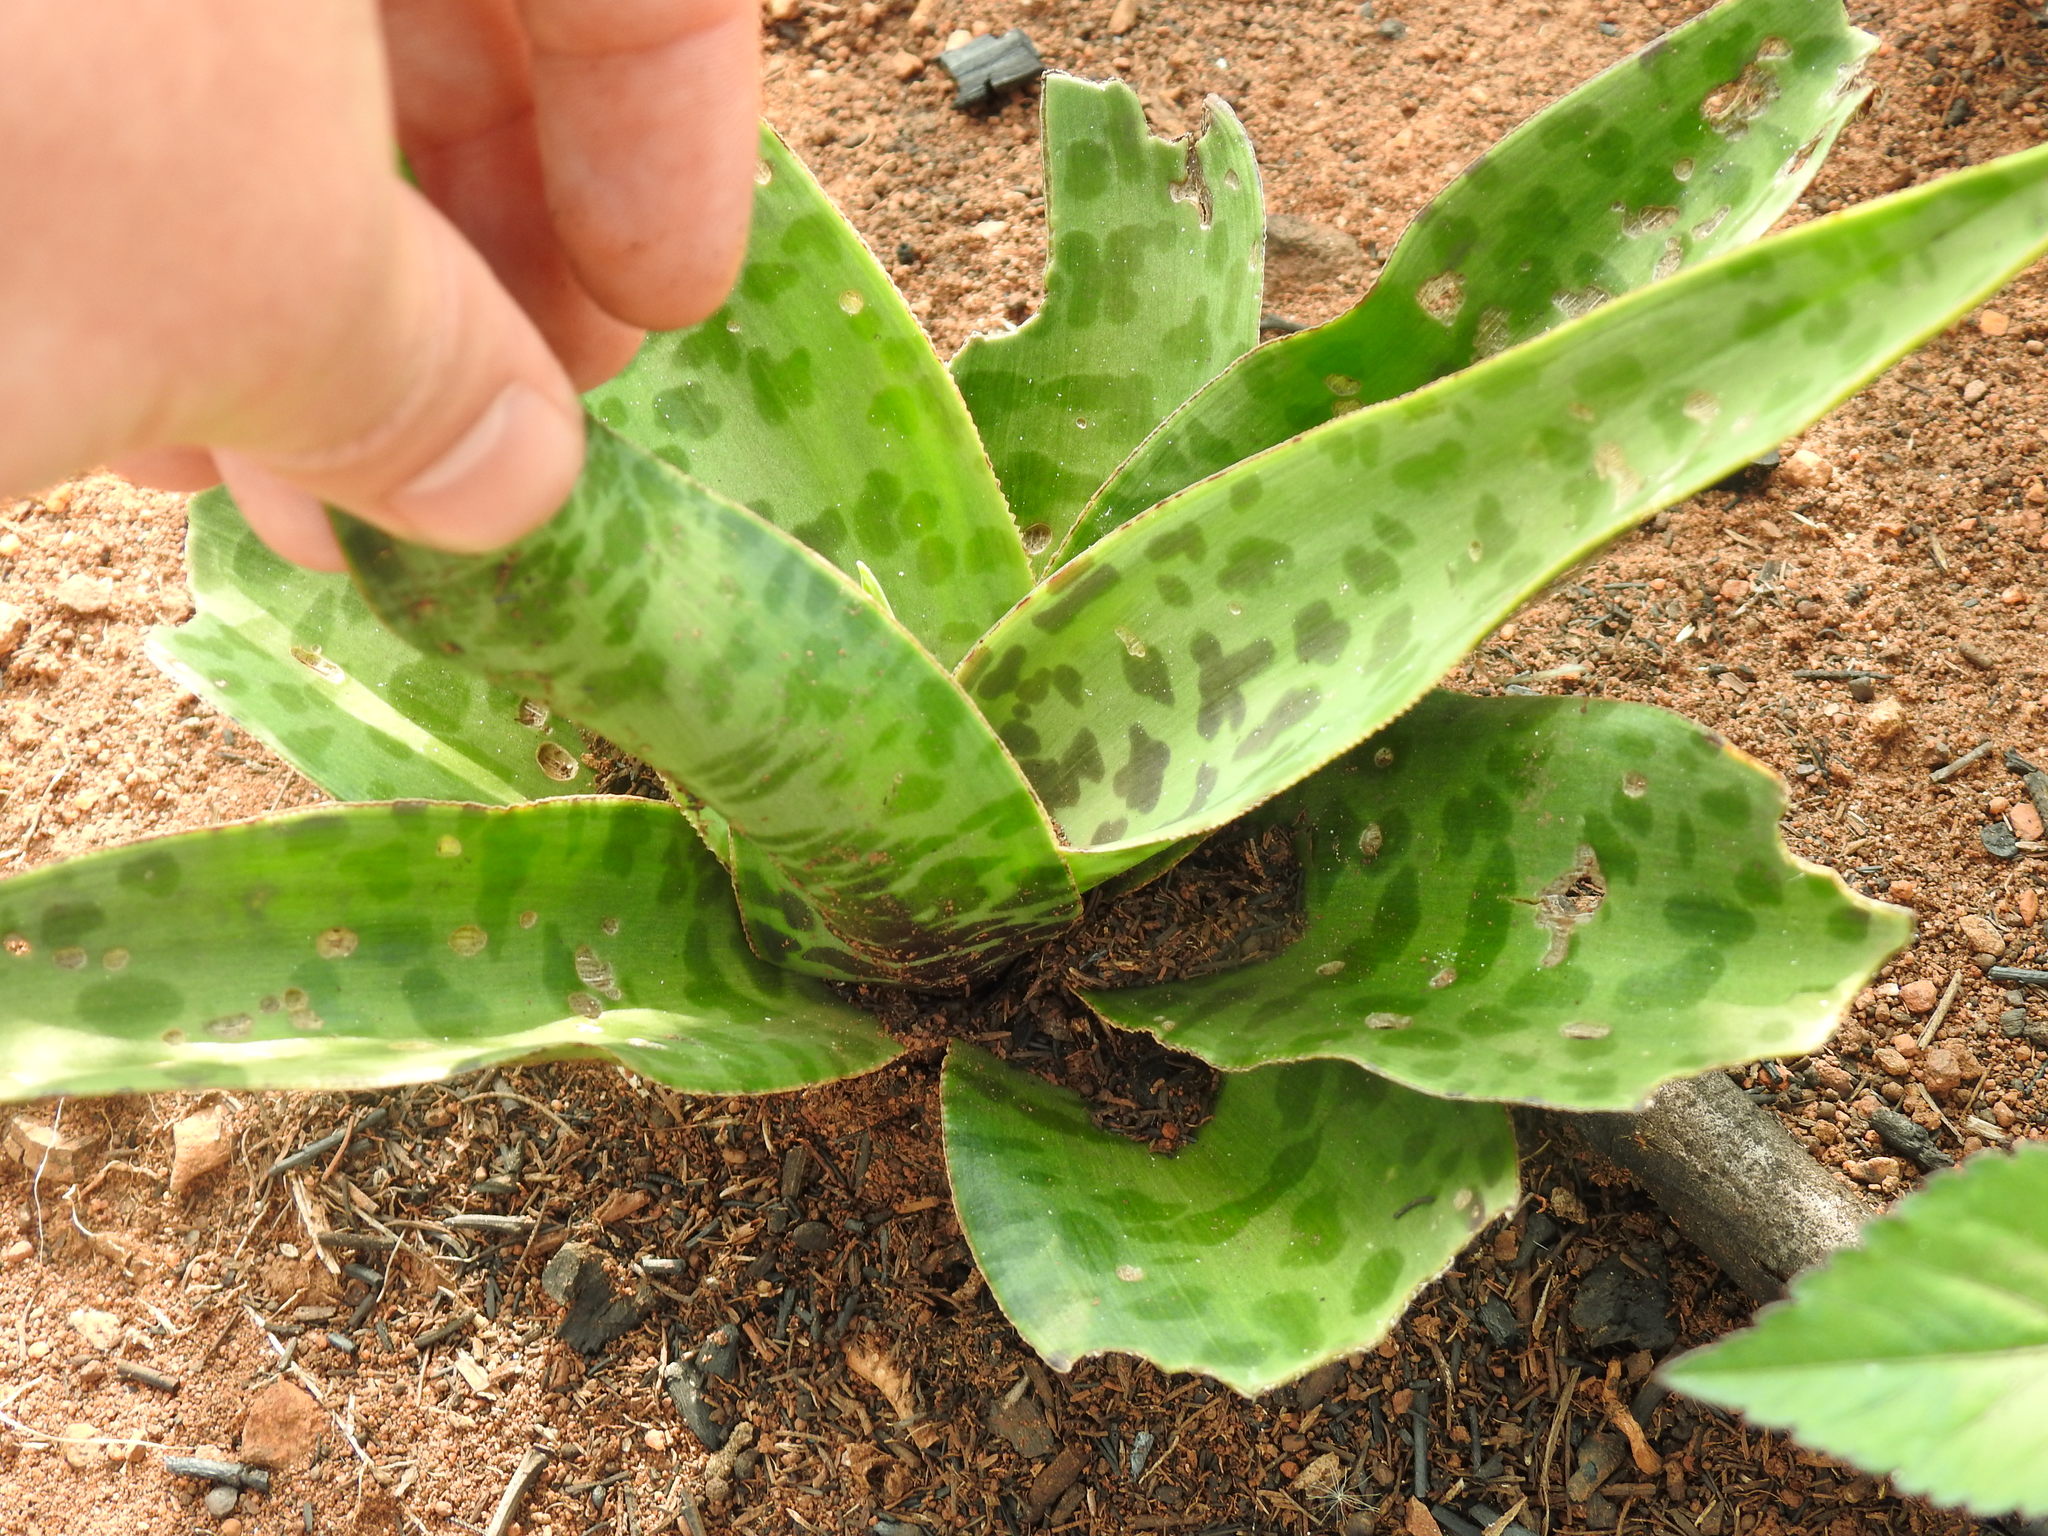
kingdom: Plantae
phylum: Tracheophyta
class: Liliopsida
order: Asparagales
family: Asparagaceae
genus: Ledebouria
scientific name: Ledebouria luteola
